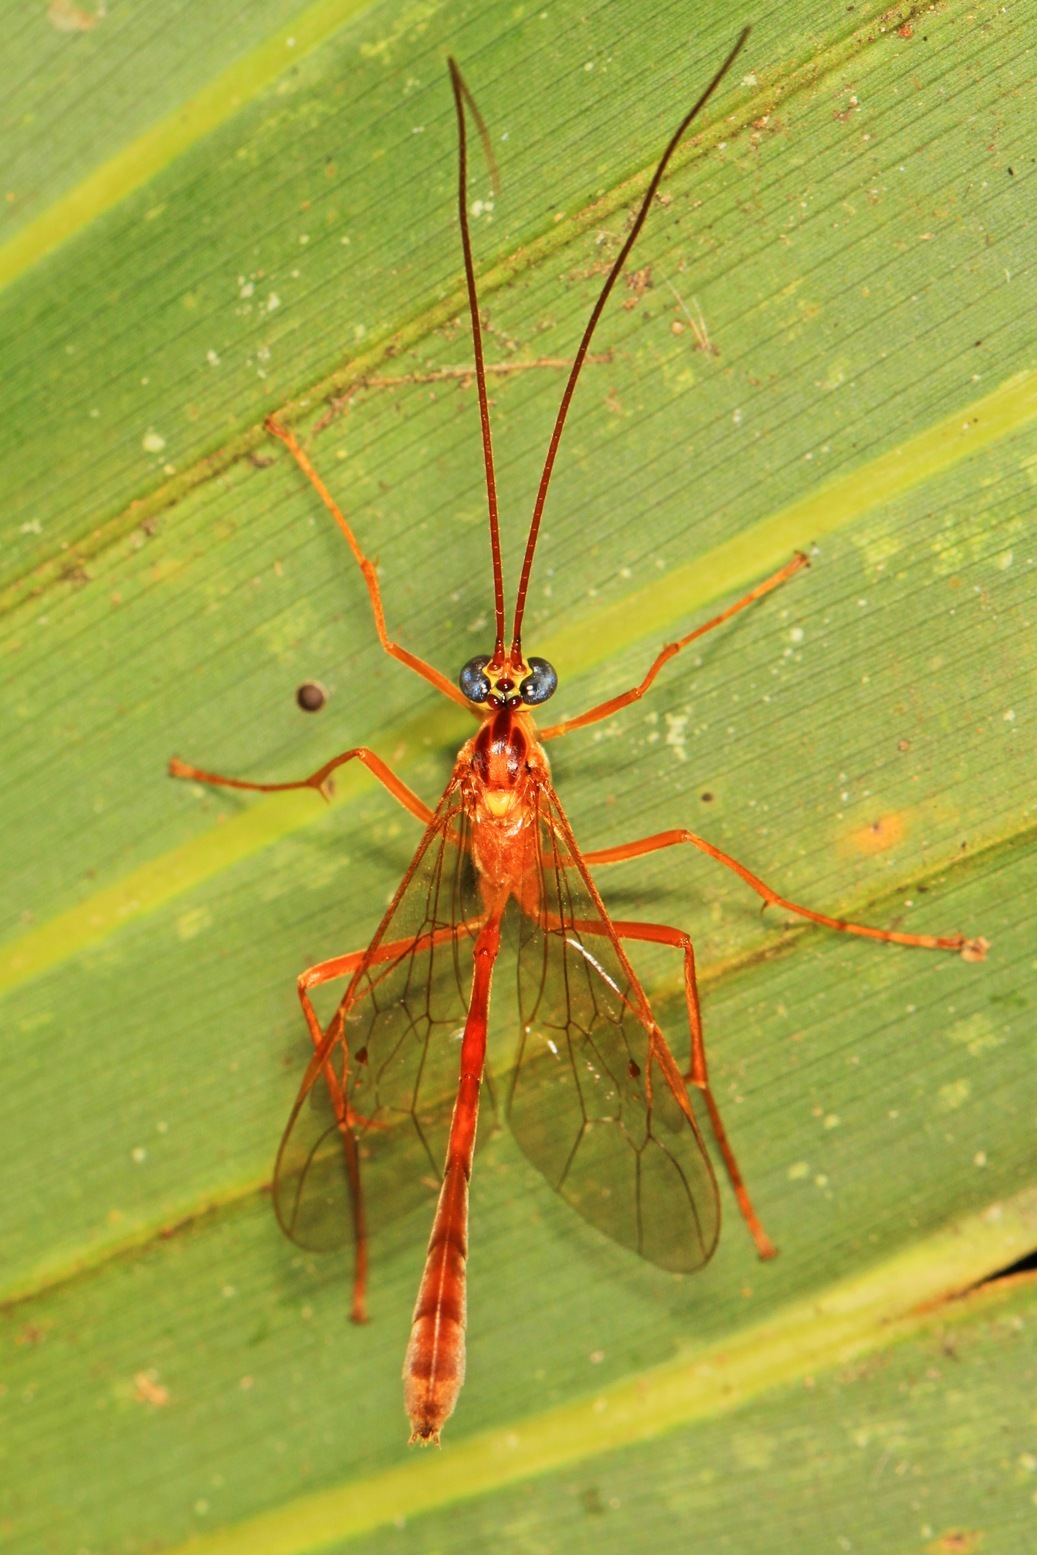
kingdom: Animalia
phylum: Arthropoda
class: Insecta
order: Hymenoptera
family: Ichneumonidae
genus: Enicospilus
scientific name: Enicospilus flavostigma
